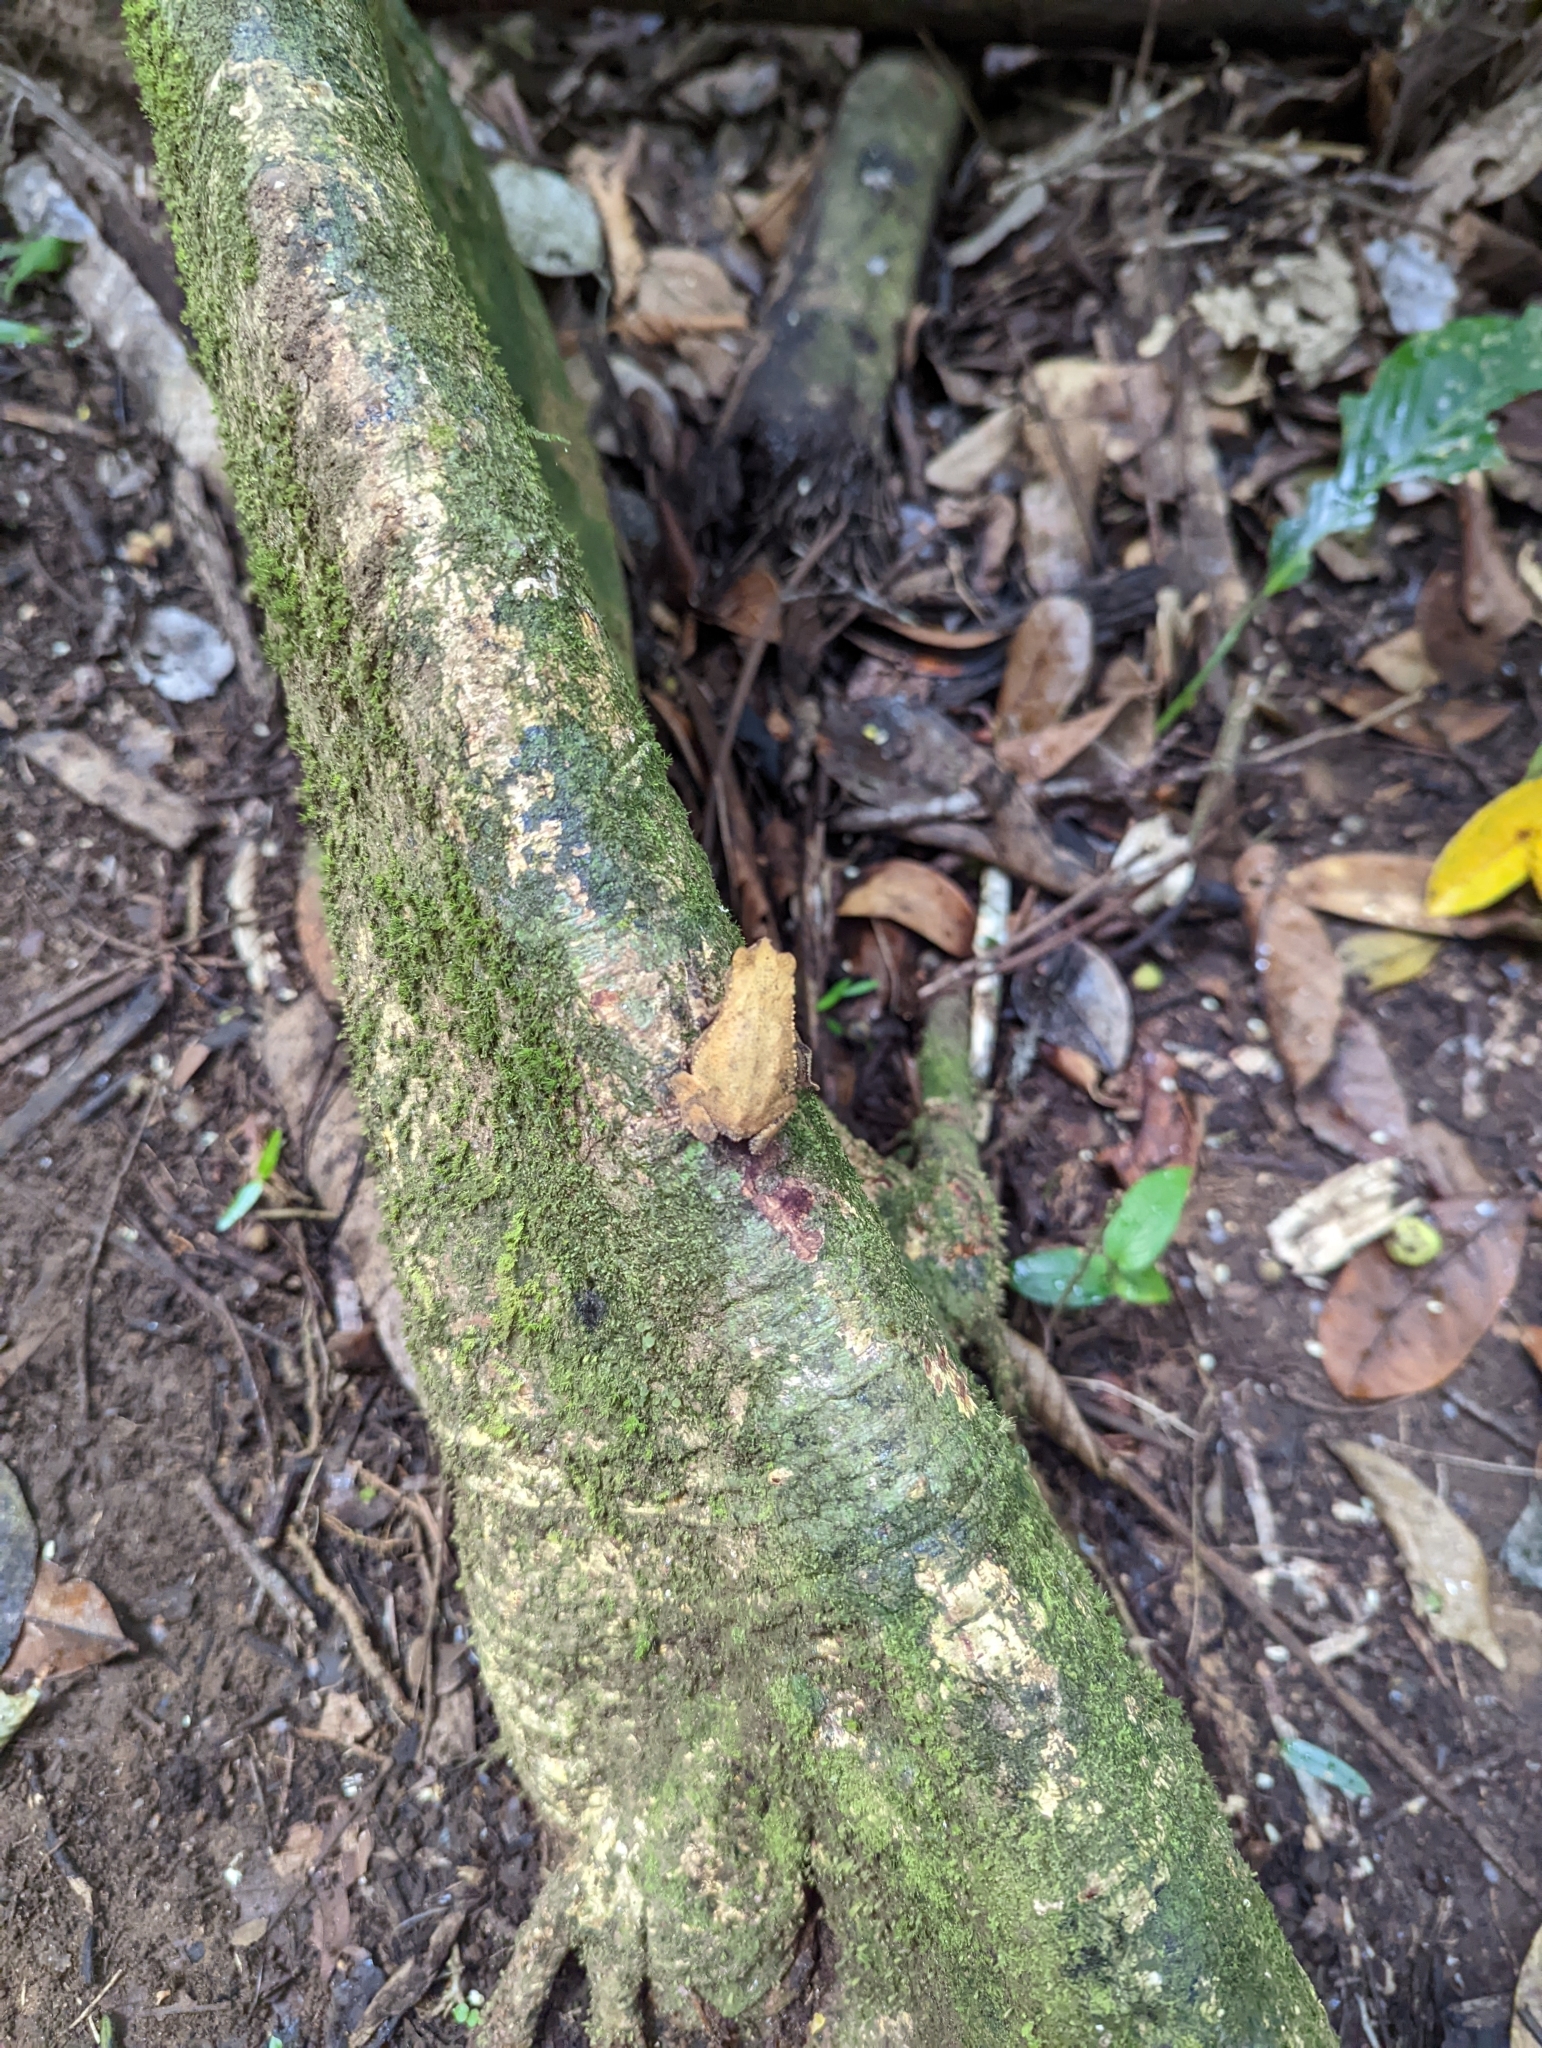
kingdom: Animalia
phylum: Chordata
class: Amphibia
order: Anura
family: Bufonidae
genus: Rhinella
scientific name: Rhinella alata
